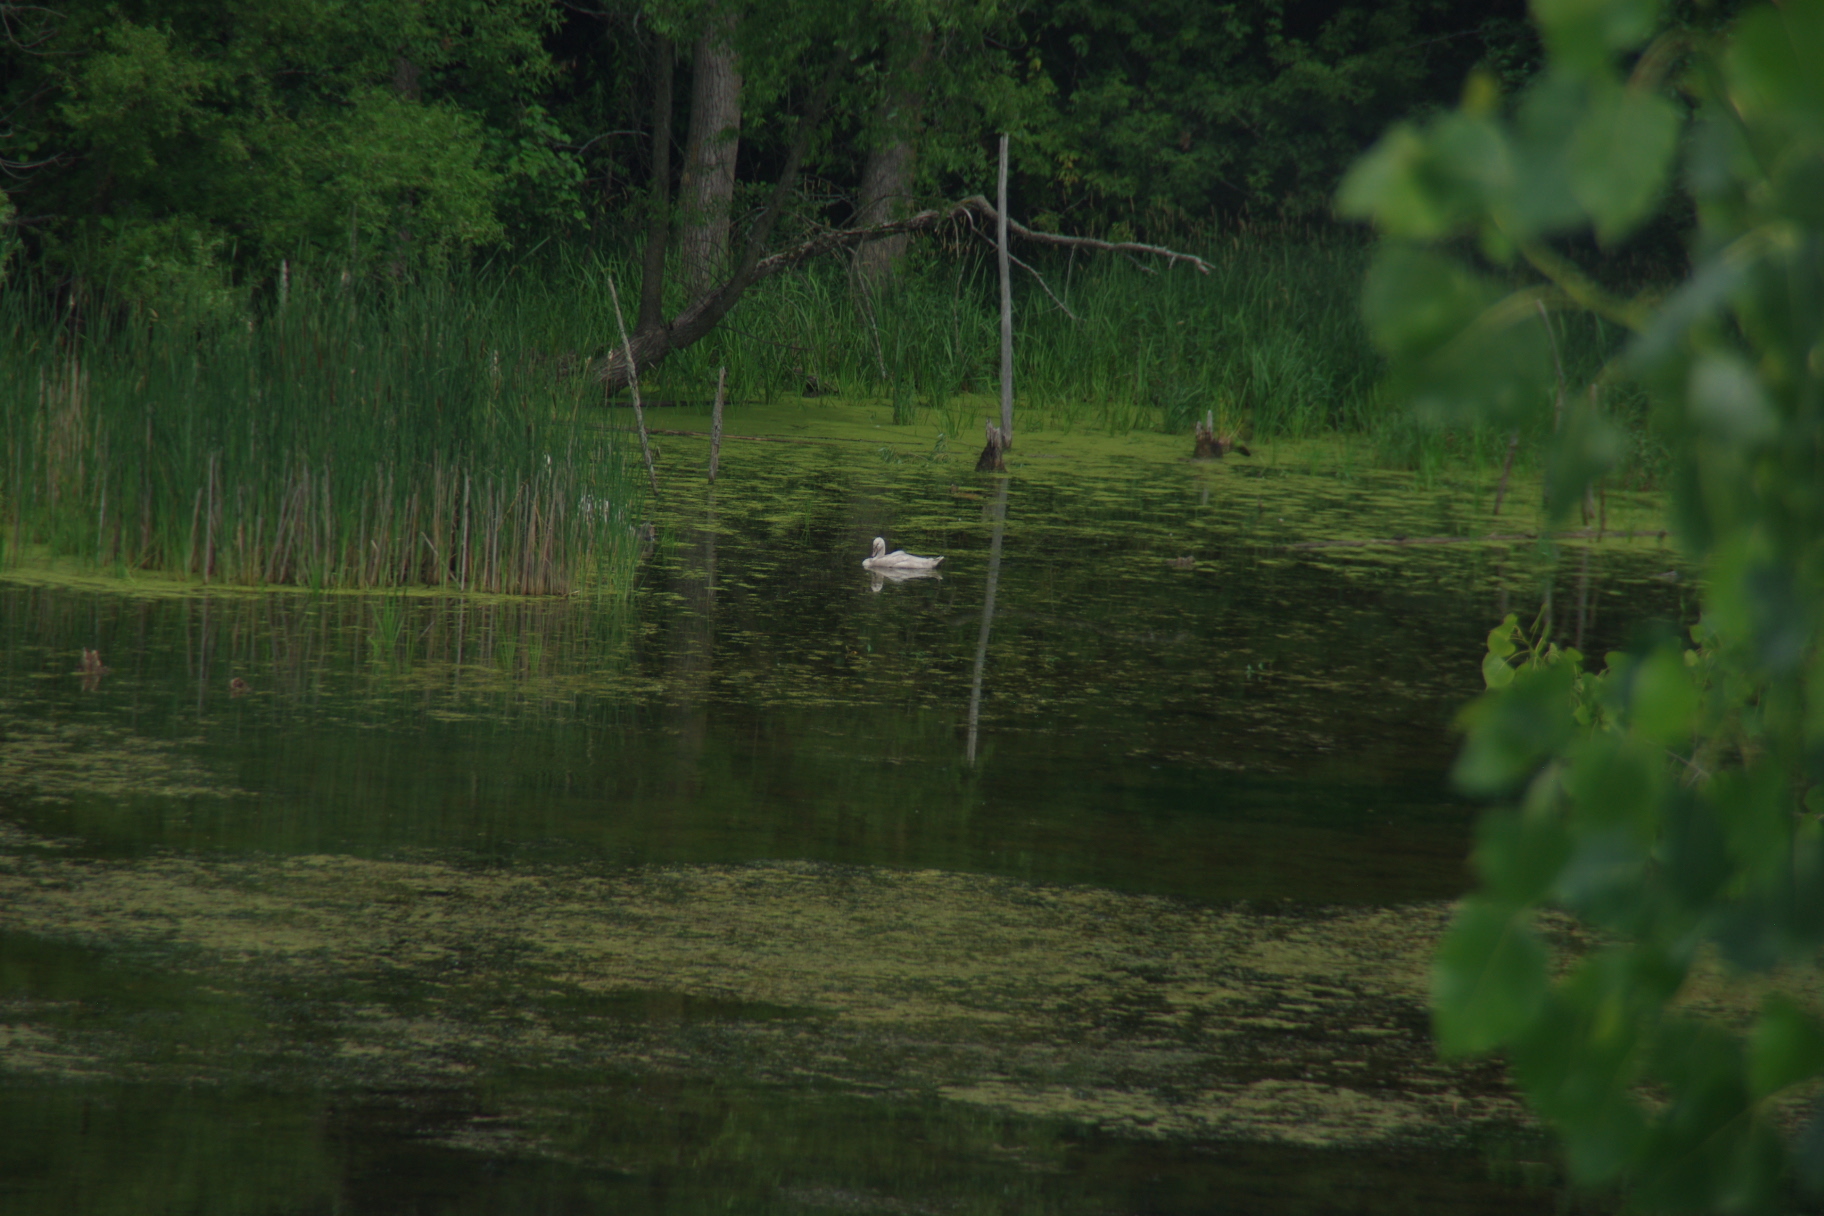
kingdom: Animalia
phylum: Chordata
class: Aves
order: Anseriformes
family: Anatidae
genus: Cygnus
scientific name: Cygnus olor
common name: Mute swan
